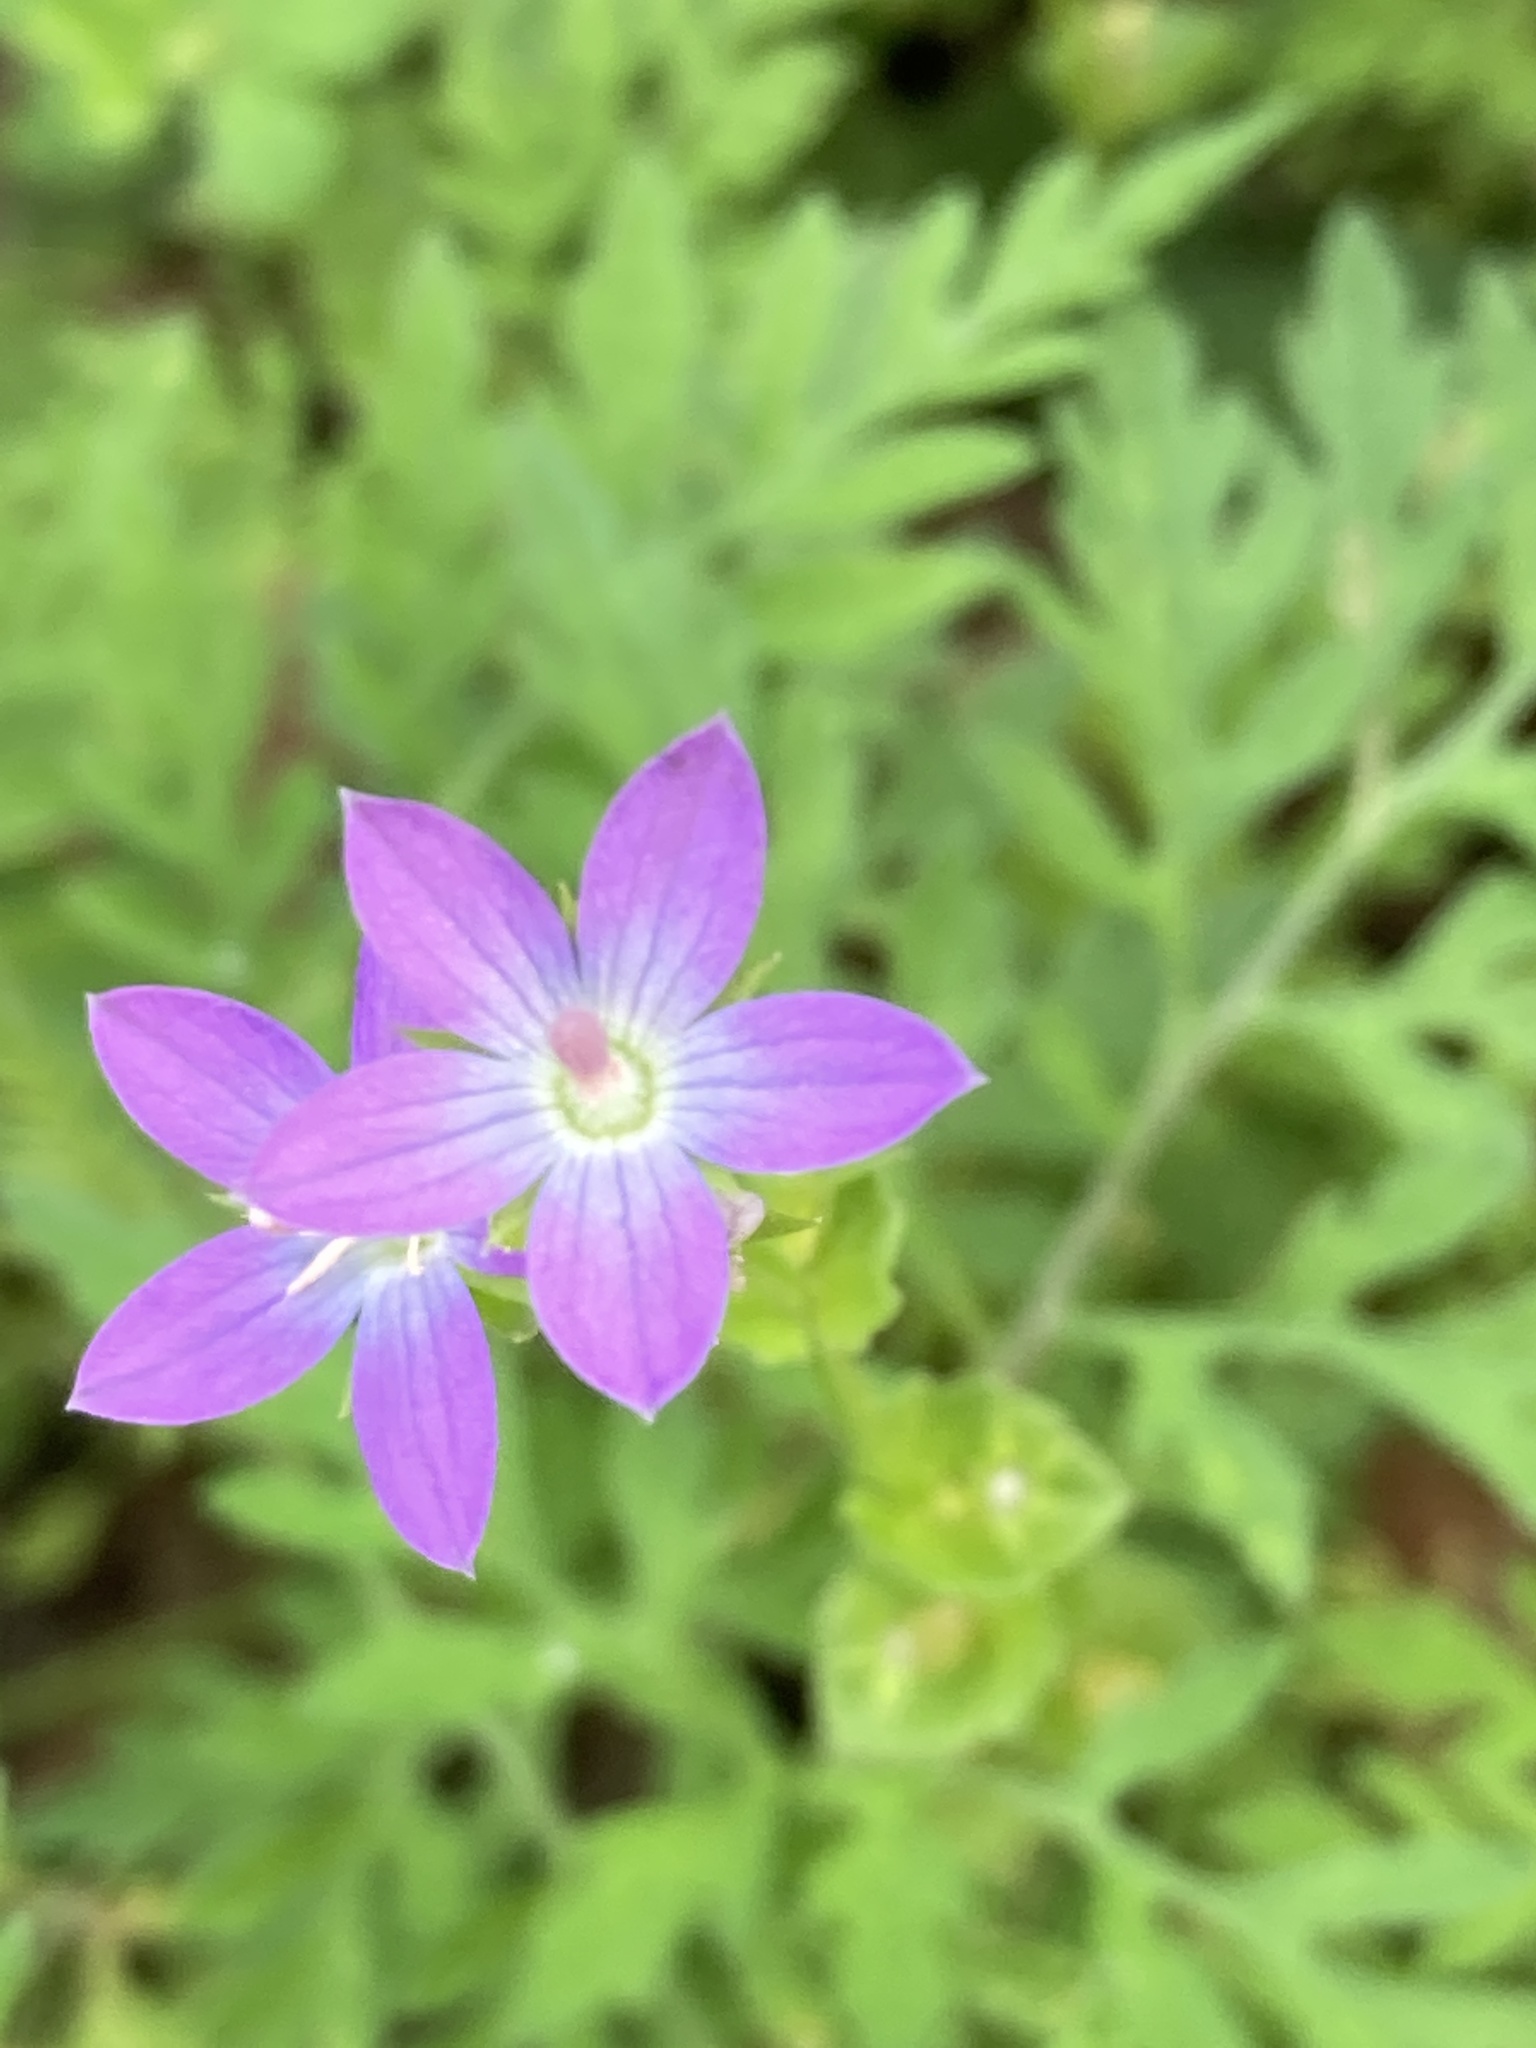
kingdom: Plantae
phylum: Tracheophyta
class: Magnoliopsida
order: Asterales
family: Campanulaceae
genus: Triodanis
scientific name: Triodanis perfoliata
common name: Clasping venus' looking-glass
